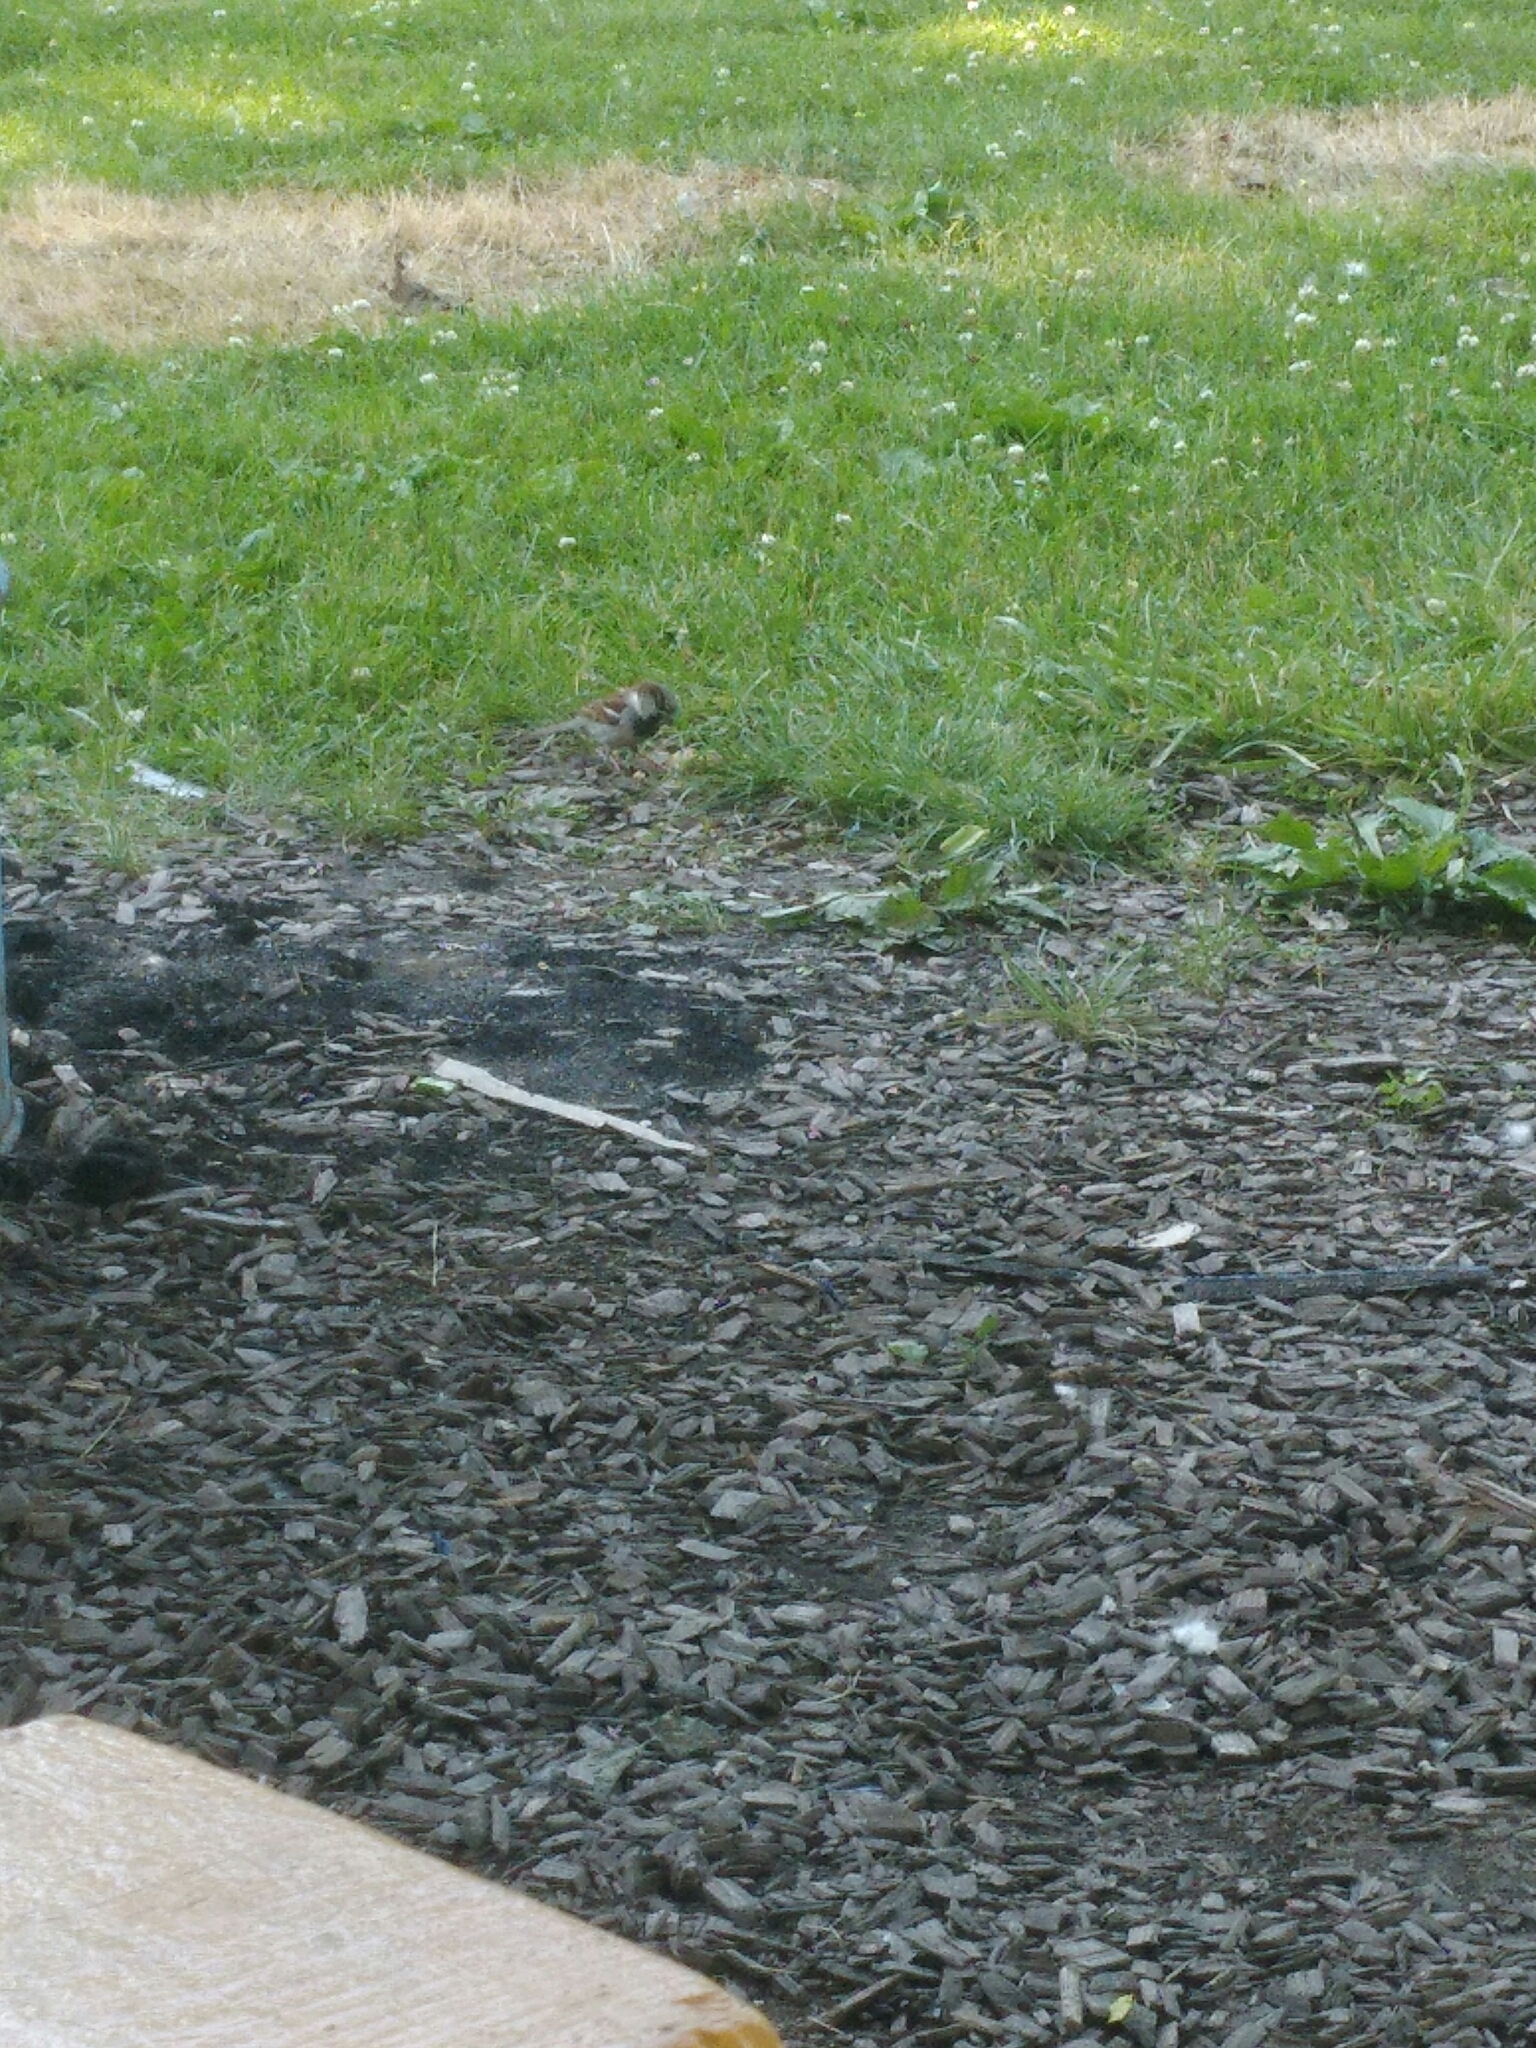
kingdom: Animalia
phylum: Chordata
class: Aves
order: Passeriformes
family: Passeridae
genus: Passer
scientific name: Passer domesticus
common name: House sparrow
